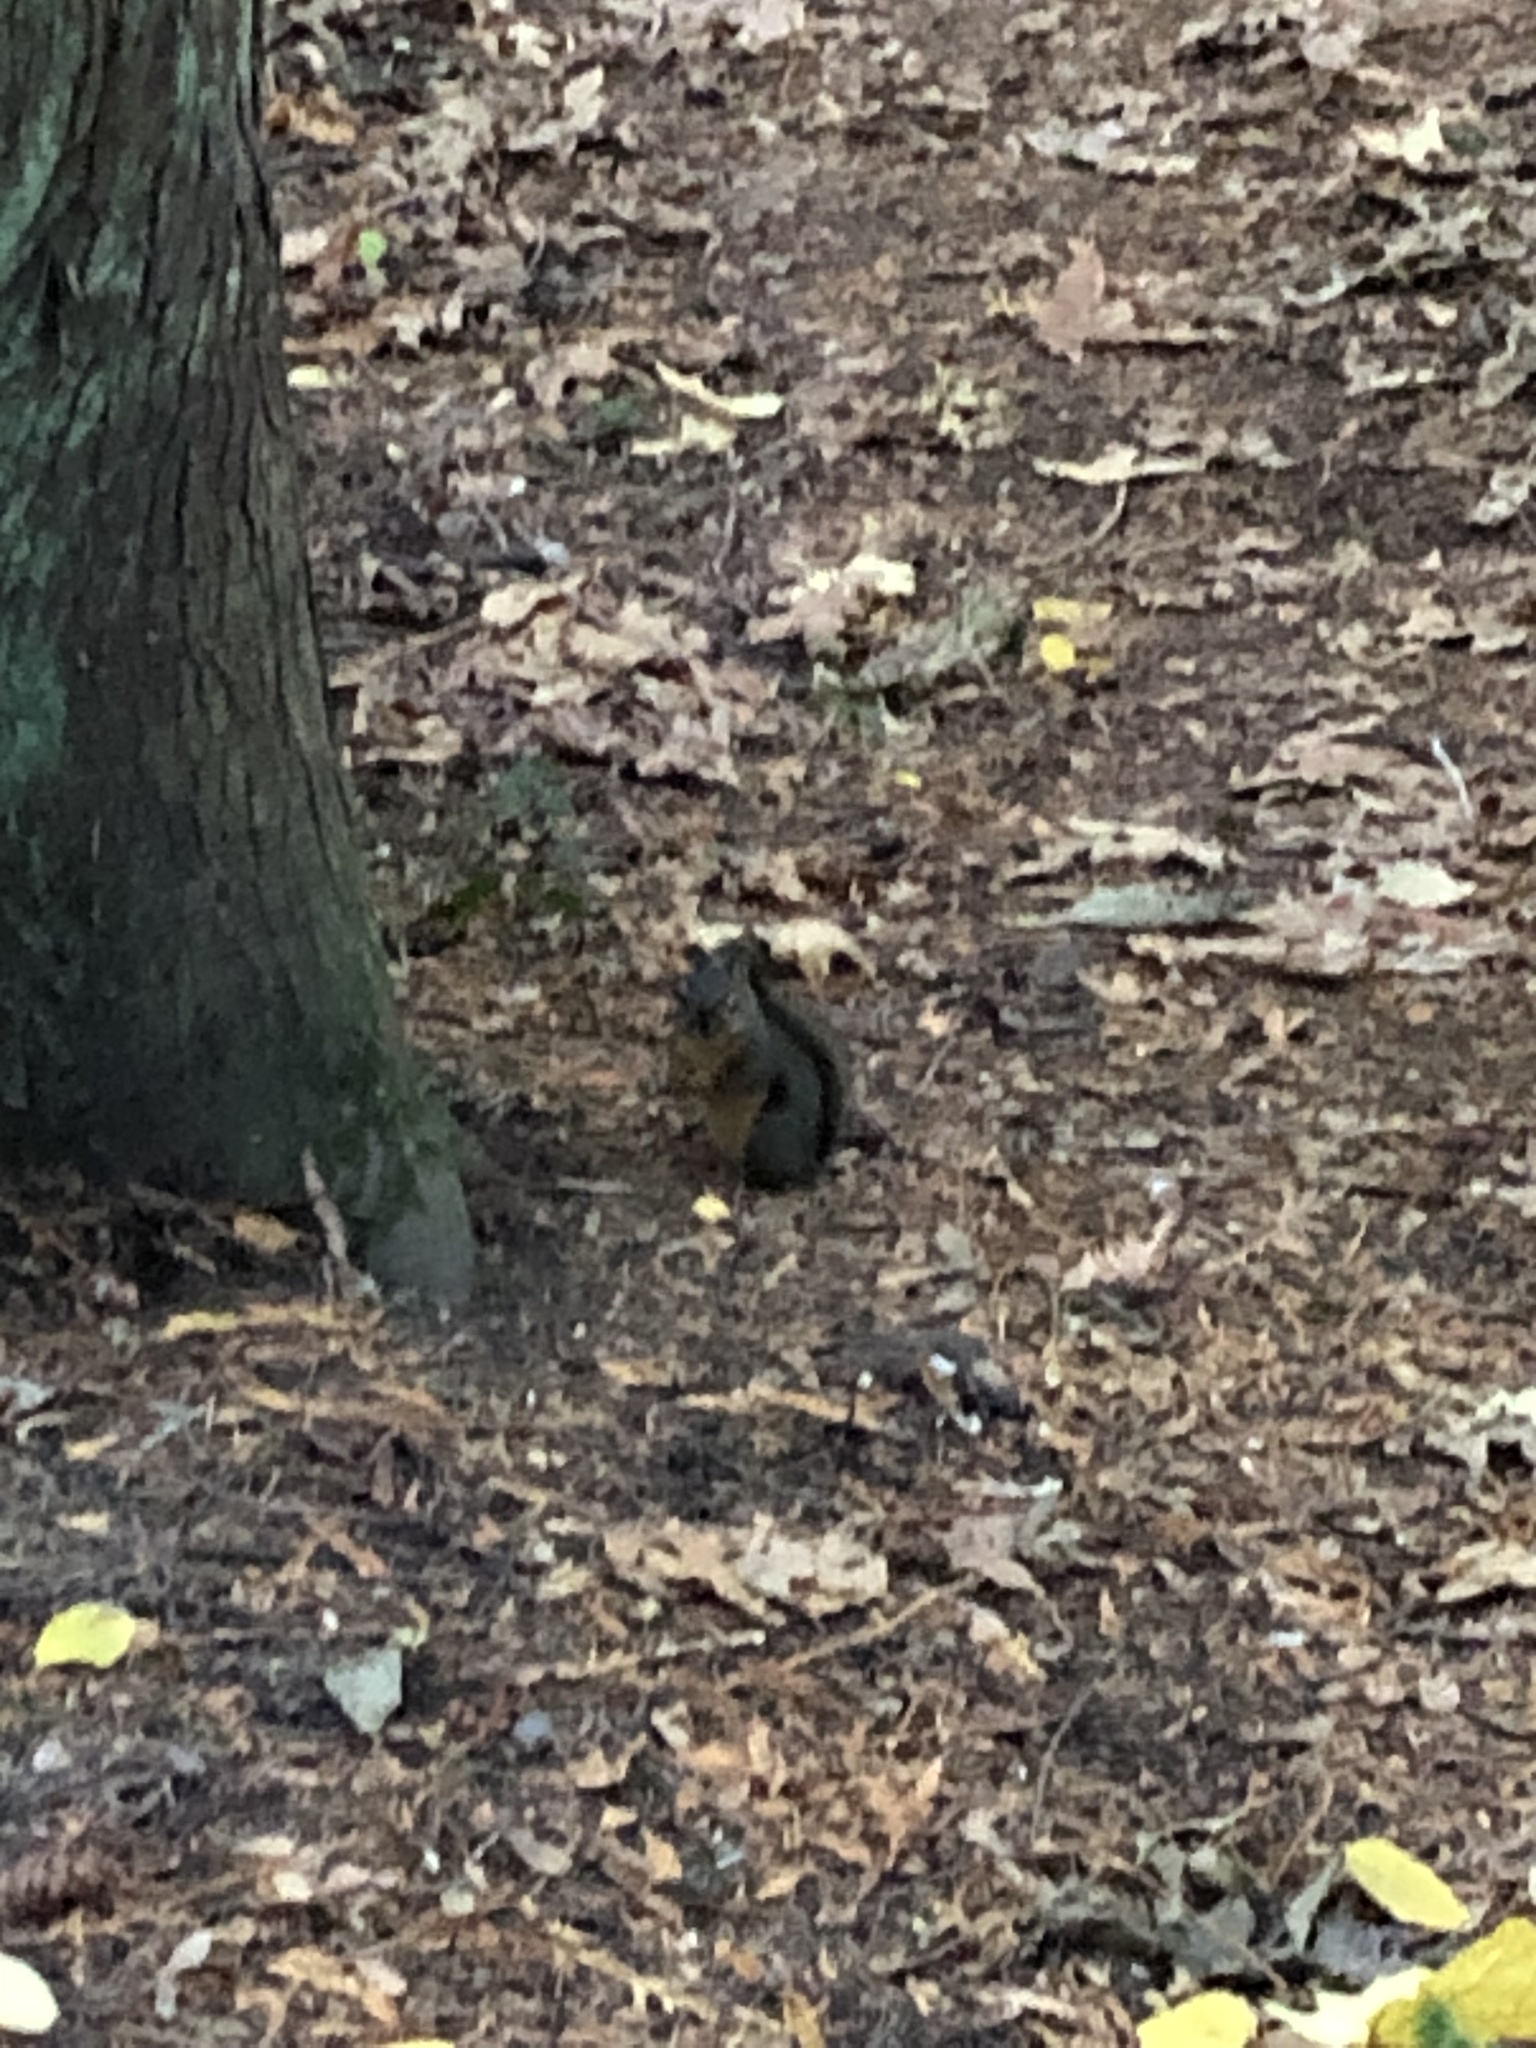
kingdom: Animalia
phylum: Chordata
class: Mammalia
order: Rodentia
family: Sciuridae
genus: Tamiasciurus
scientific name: Tamiasciurus douglasii
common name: Douglas's squirrel
